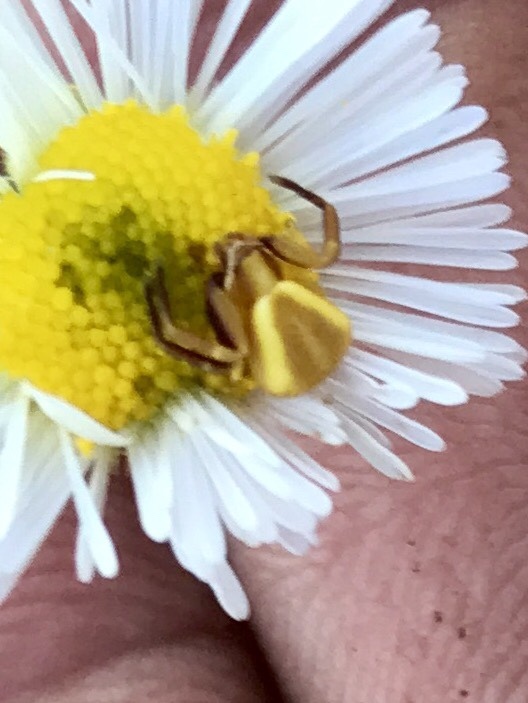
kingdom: Animalia
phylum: Arthropoda
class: Arachnida
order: Araneae
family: Thomisidae
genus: Misumenoides
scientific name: Misumenoides formosipes
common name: White-banded crab spider
